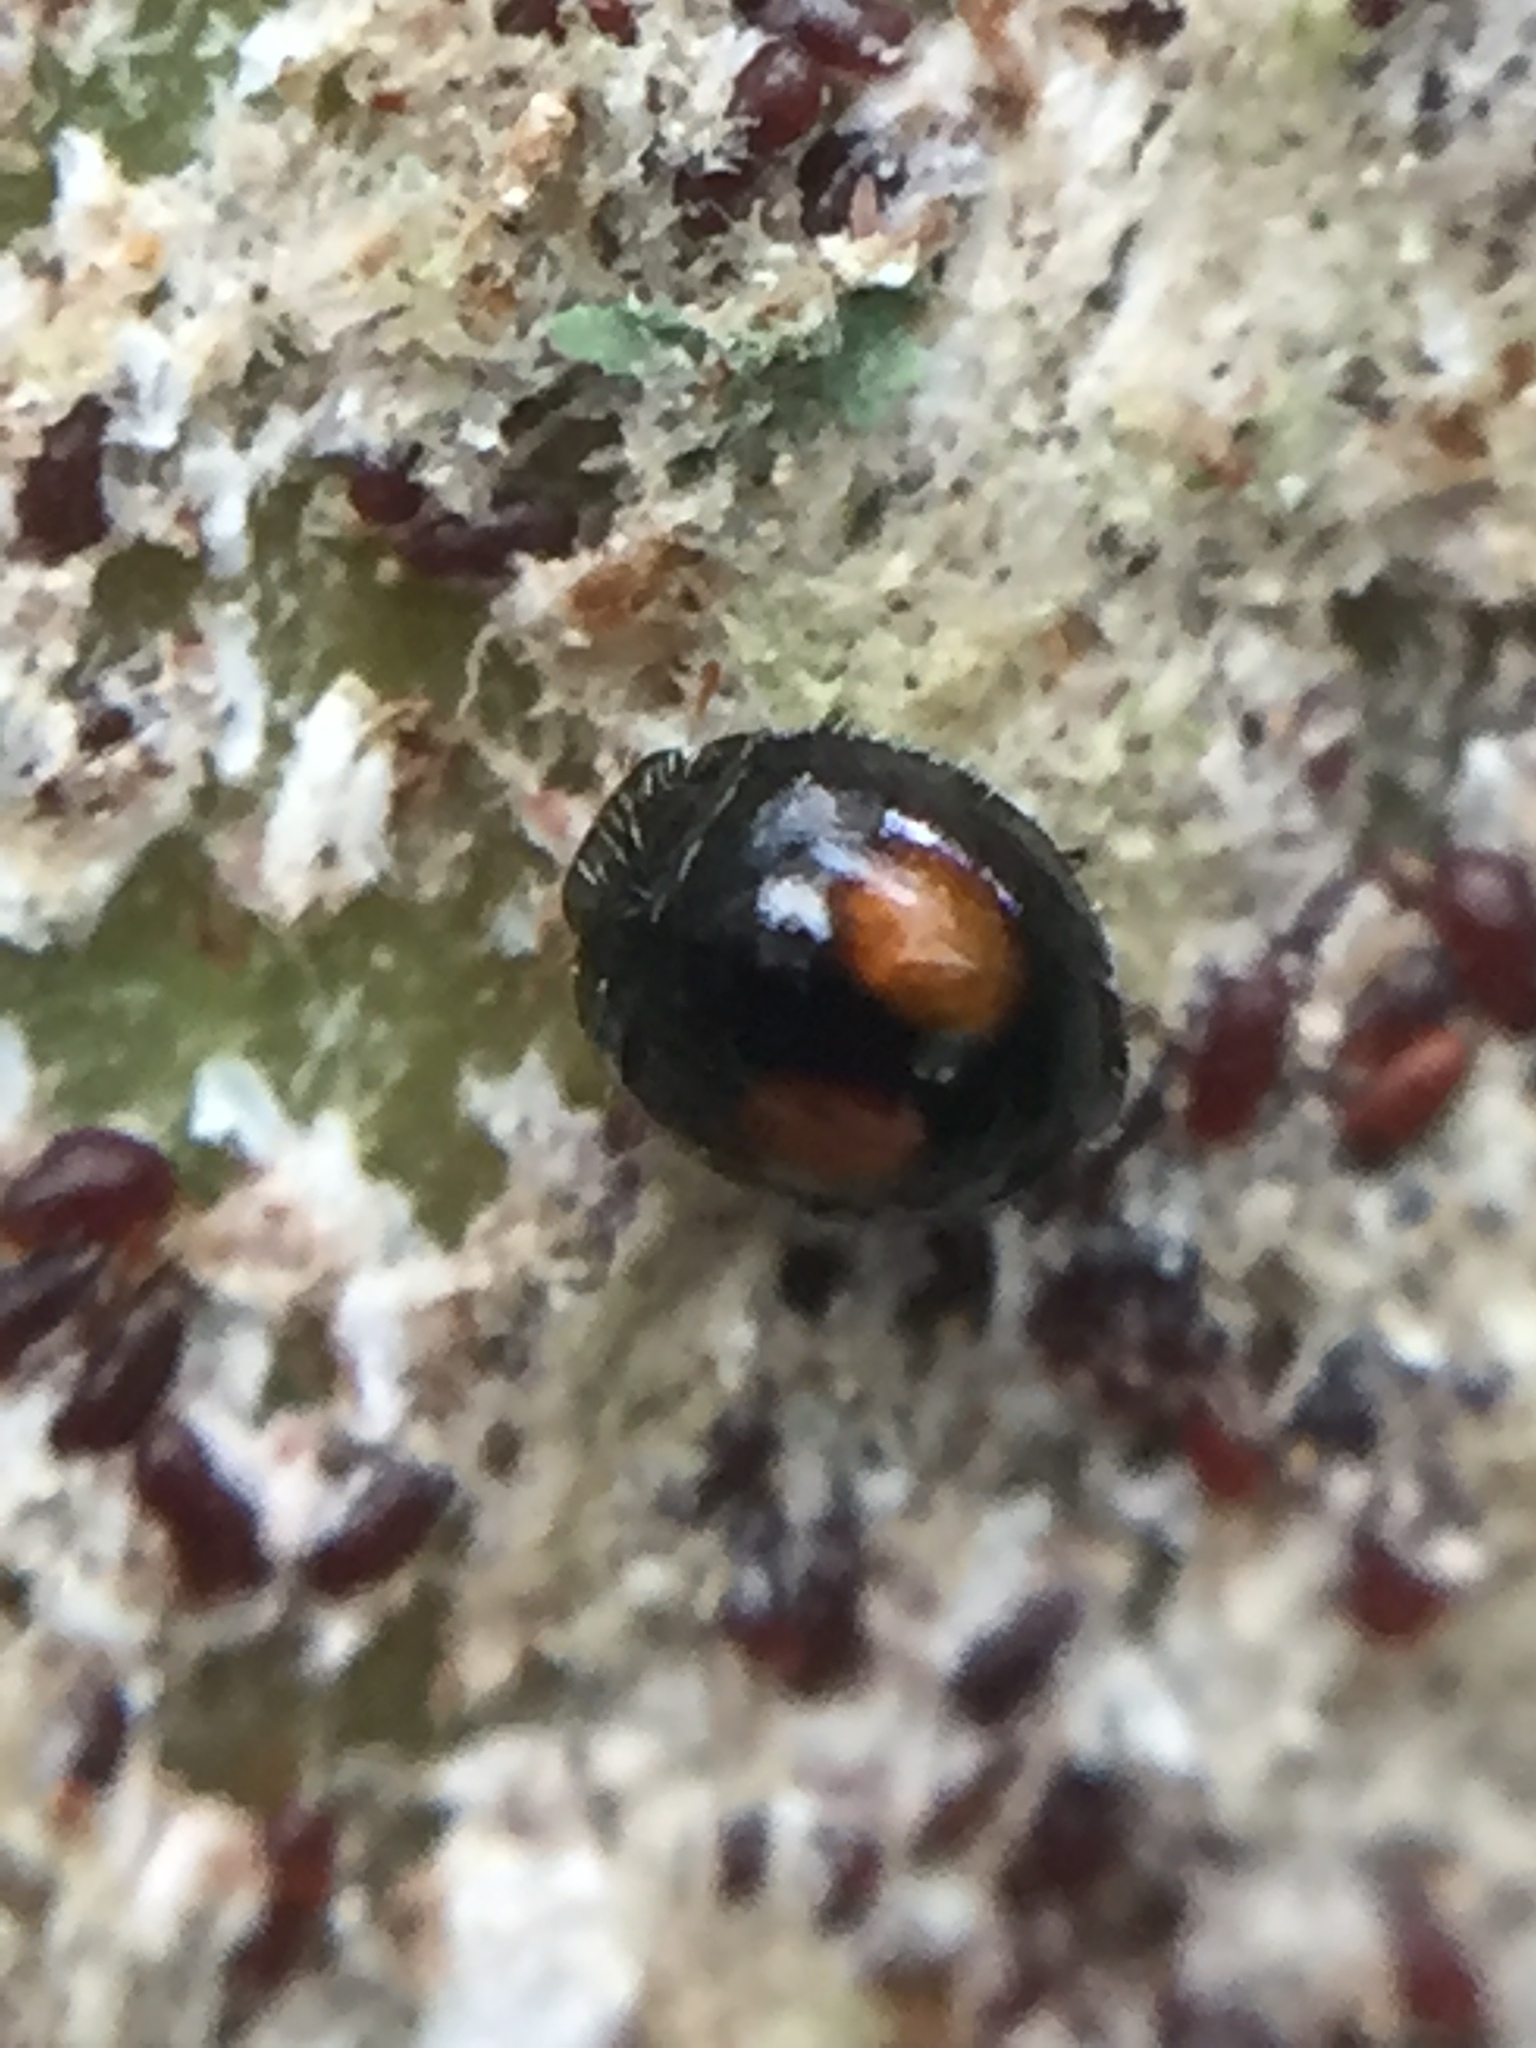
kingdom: Animalia
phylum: Arthropoda
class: Insecta
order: Coleoptera
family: Coccinellidae
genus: Serangium
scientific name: Serangium maculigerum
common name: Lady beetle
